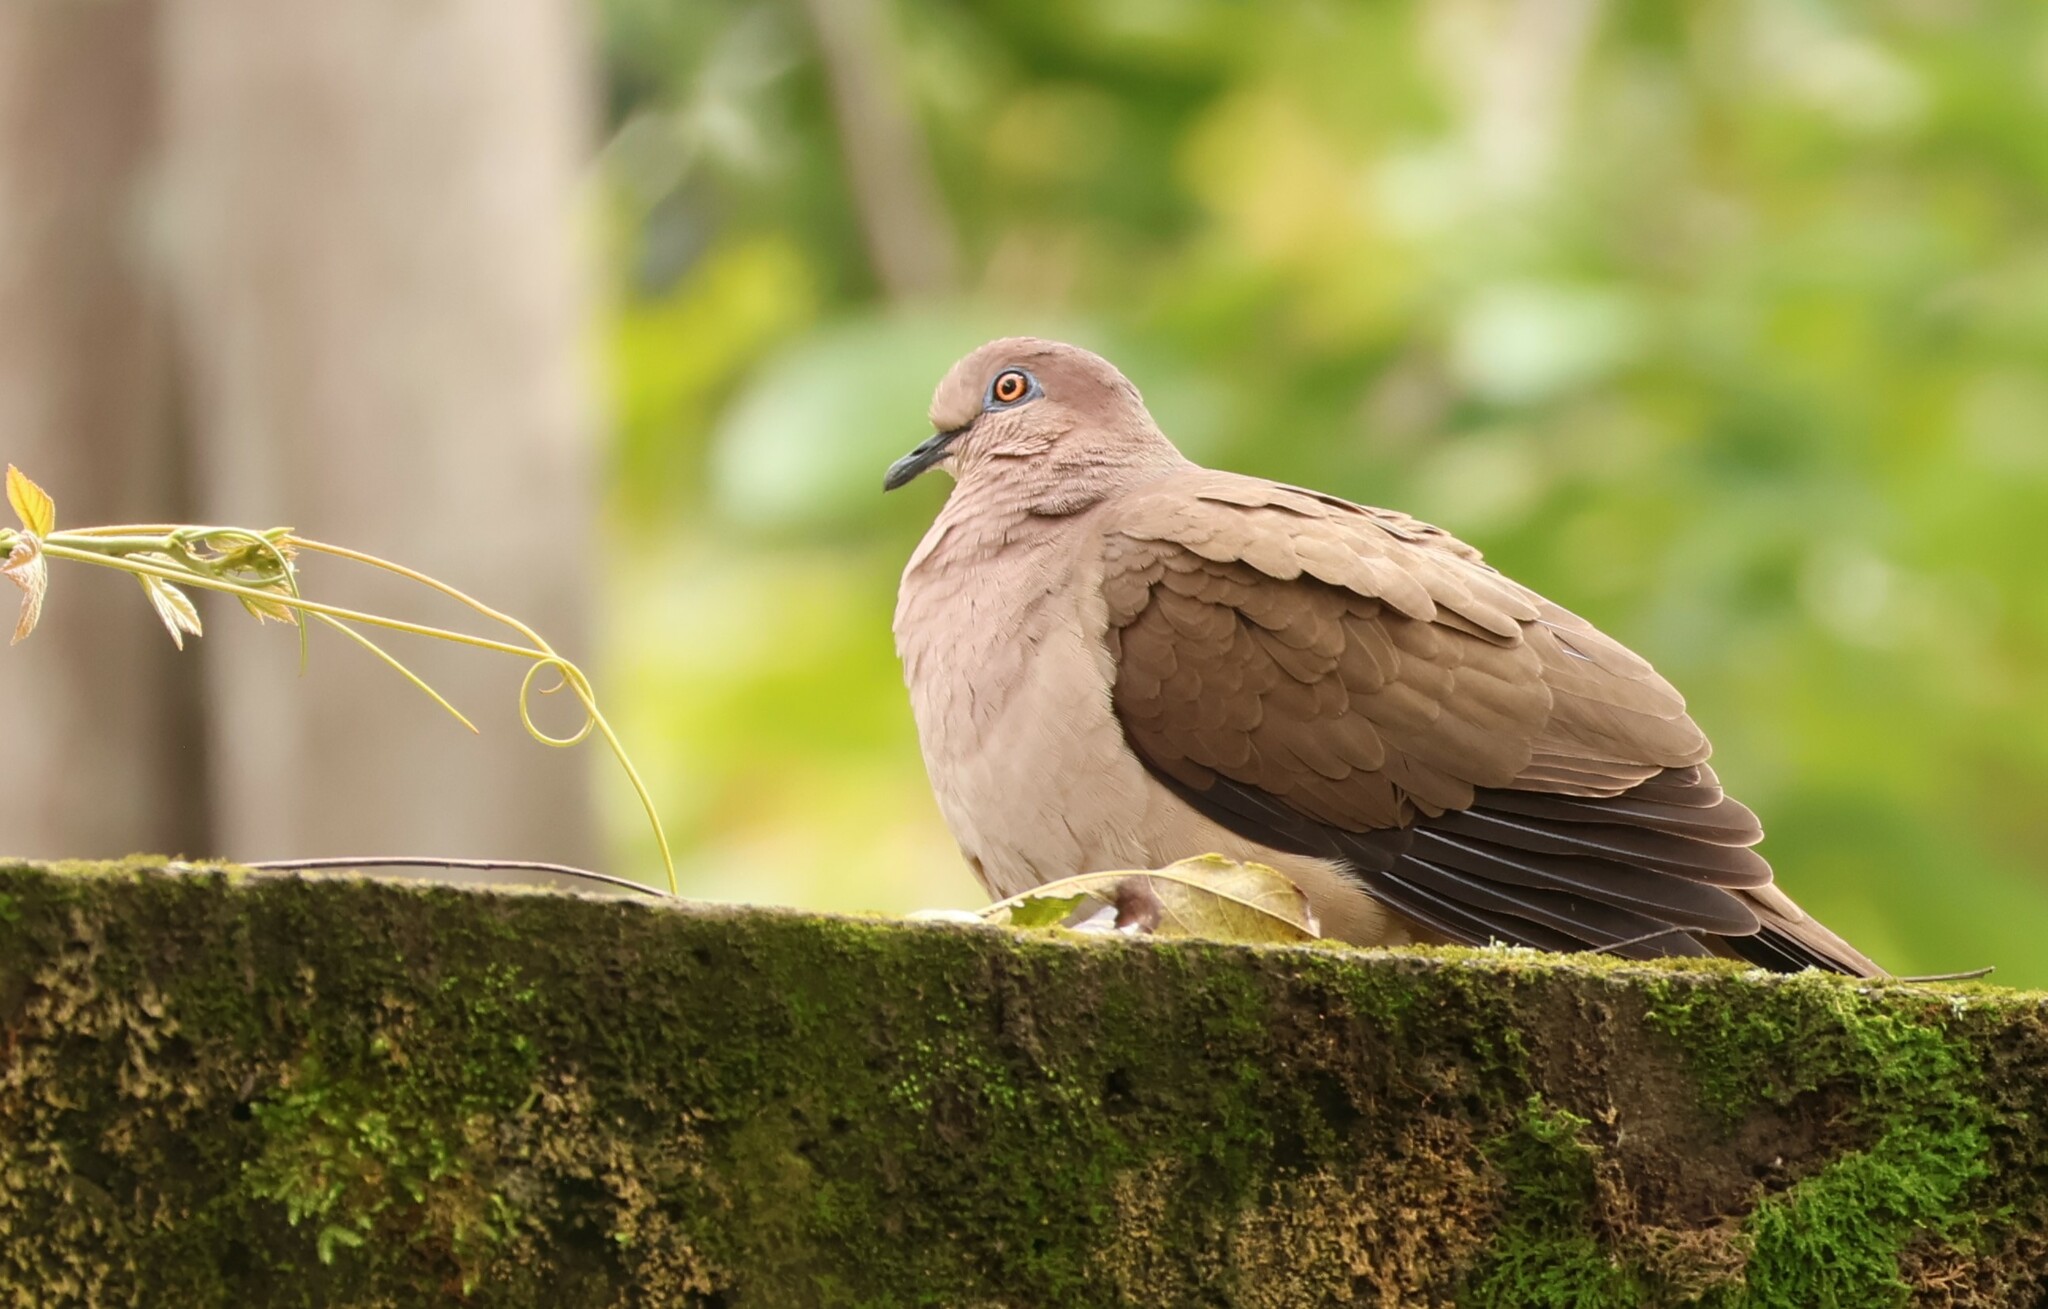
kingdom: Animalia
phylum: Chordata
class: Aves
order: Columbiformes
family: Columbidae
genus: Leptotila
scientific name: Leptotila verreauxi
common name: White-tipped dove
